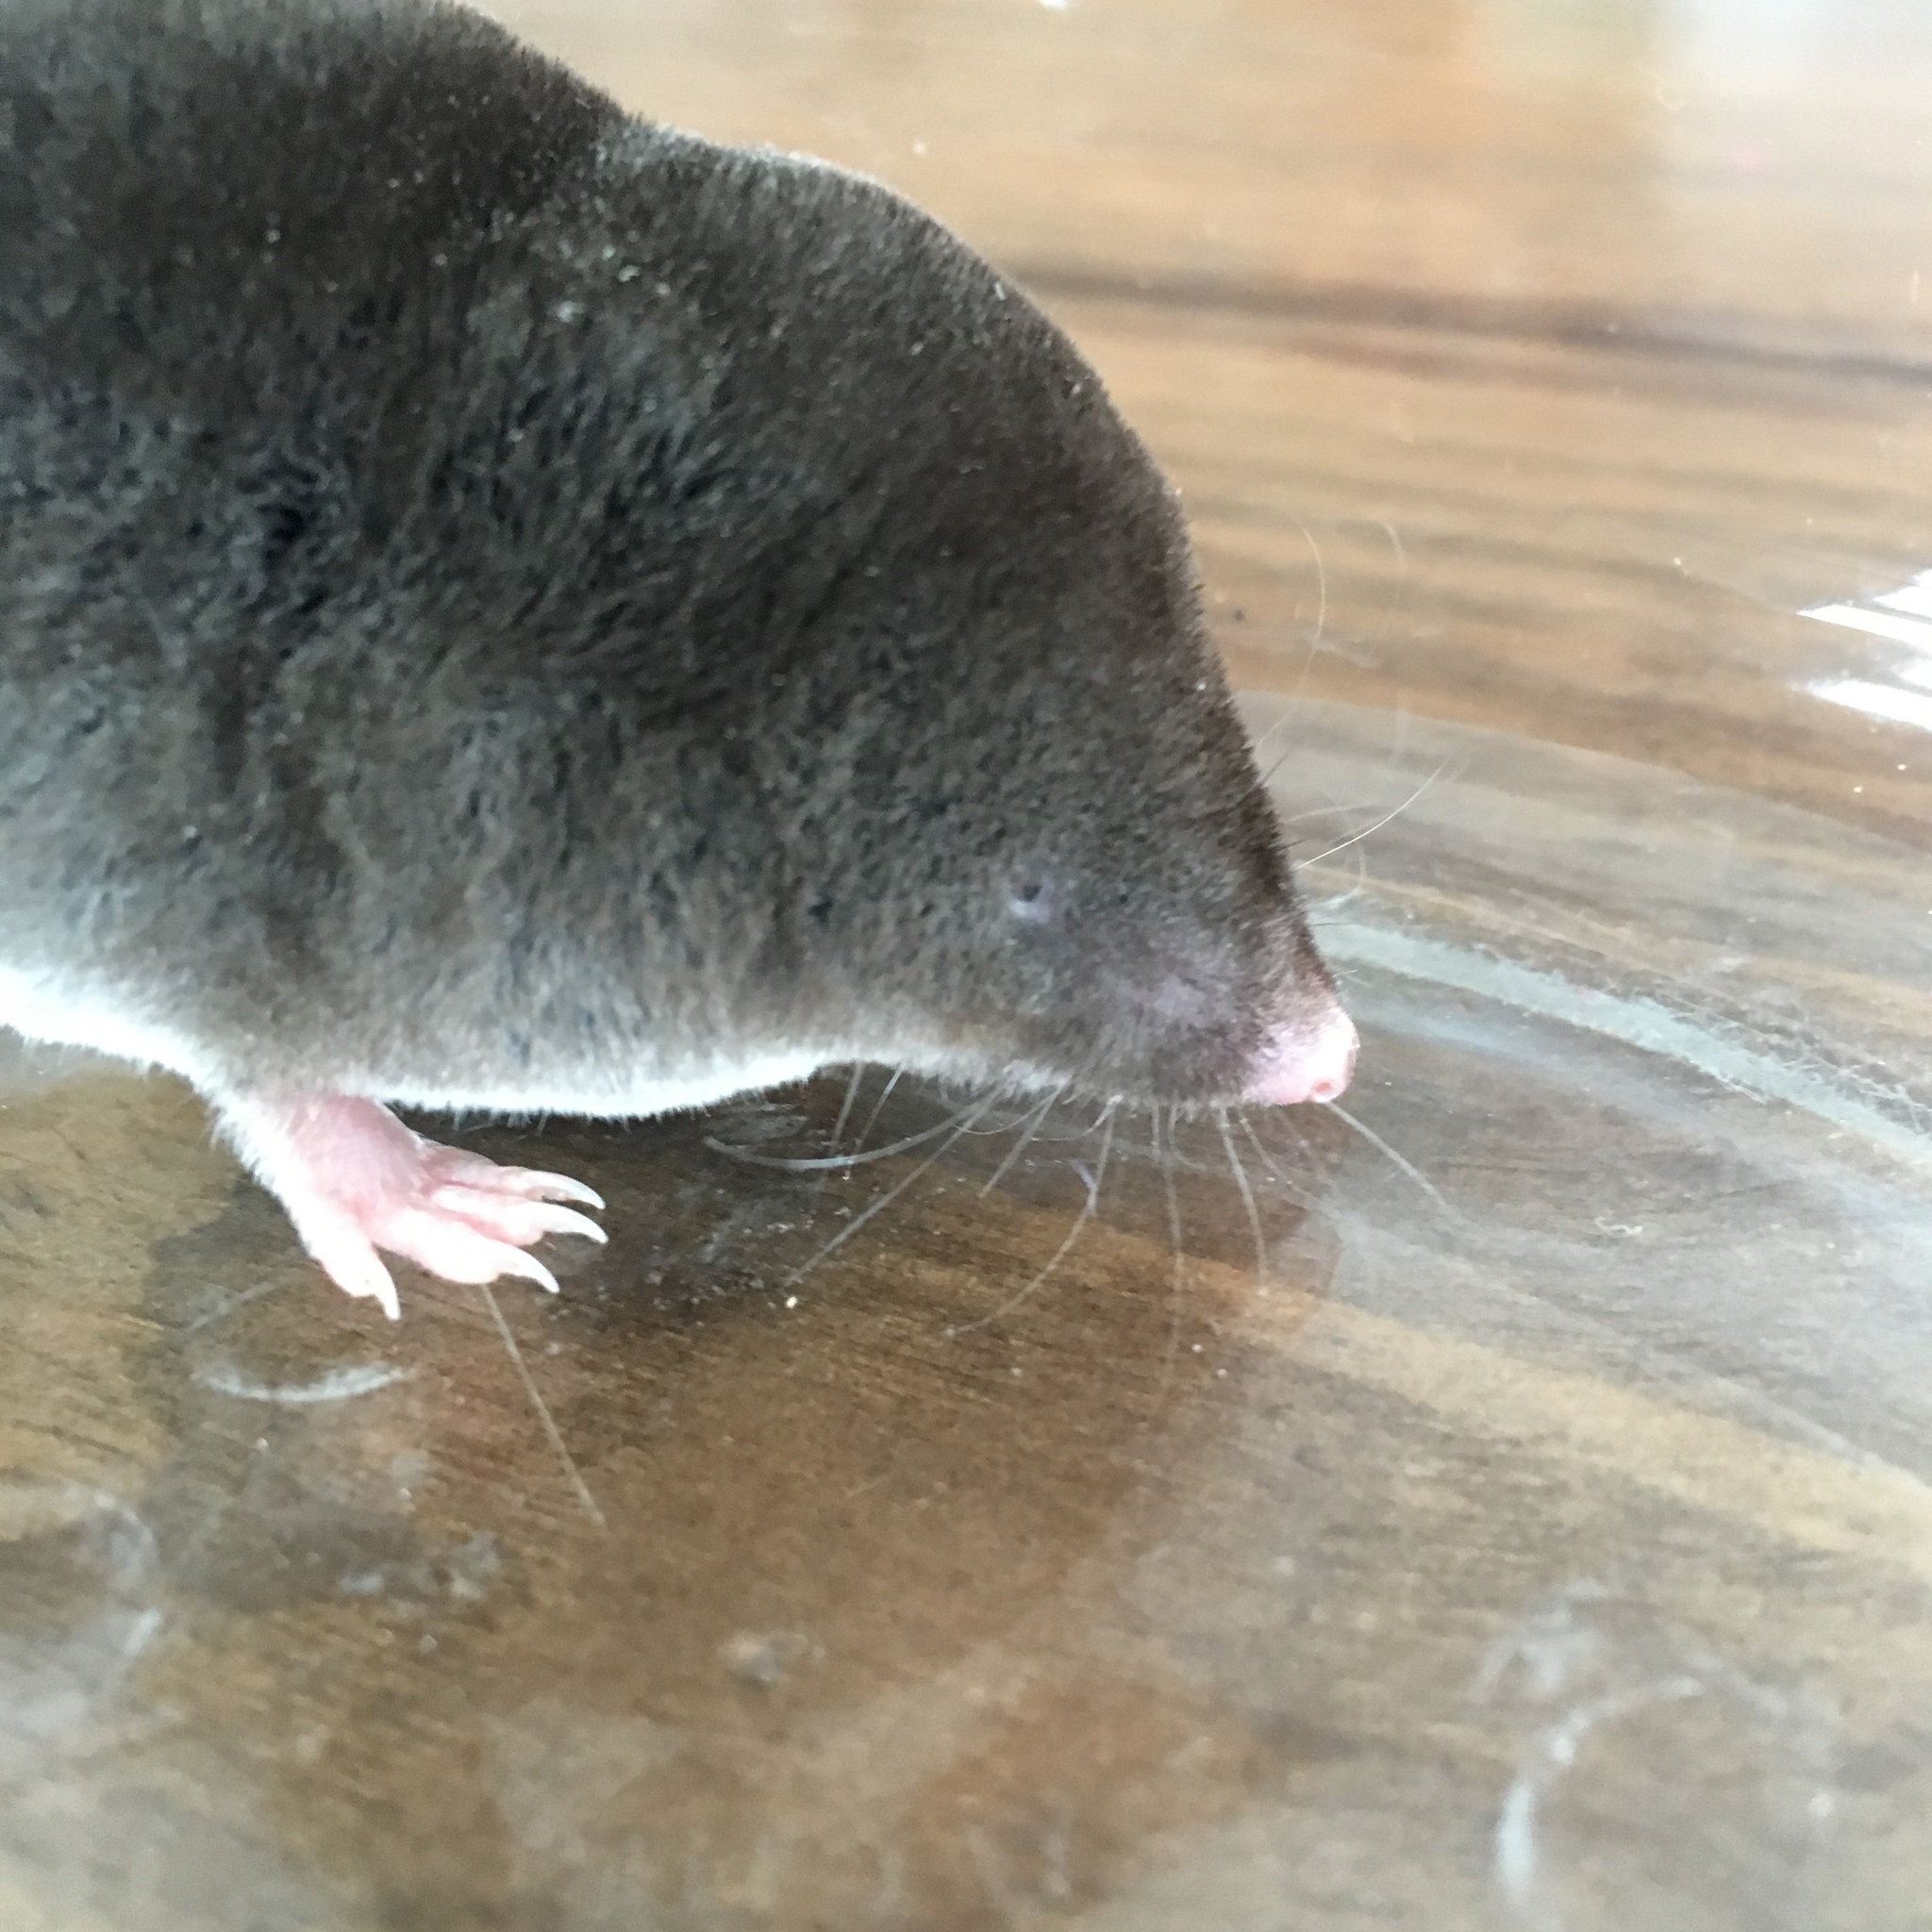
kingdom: Animalia
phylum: Chordata
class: Mammalia
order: Soricomorpha
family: Soricidae
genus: Blarina
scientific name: Blarina brevicauda
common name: Northern short-tailed shrew
